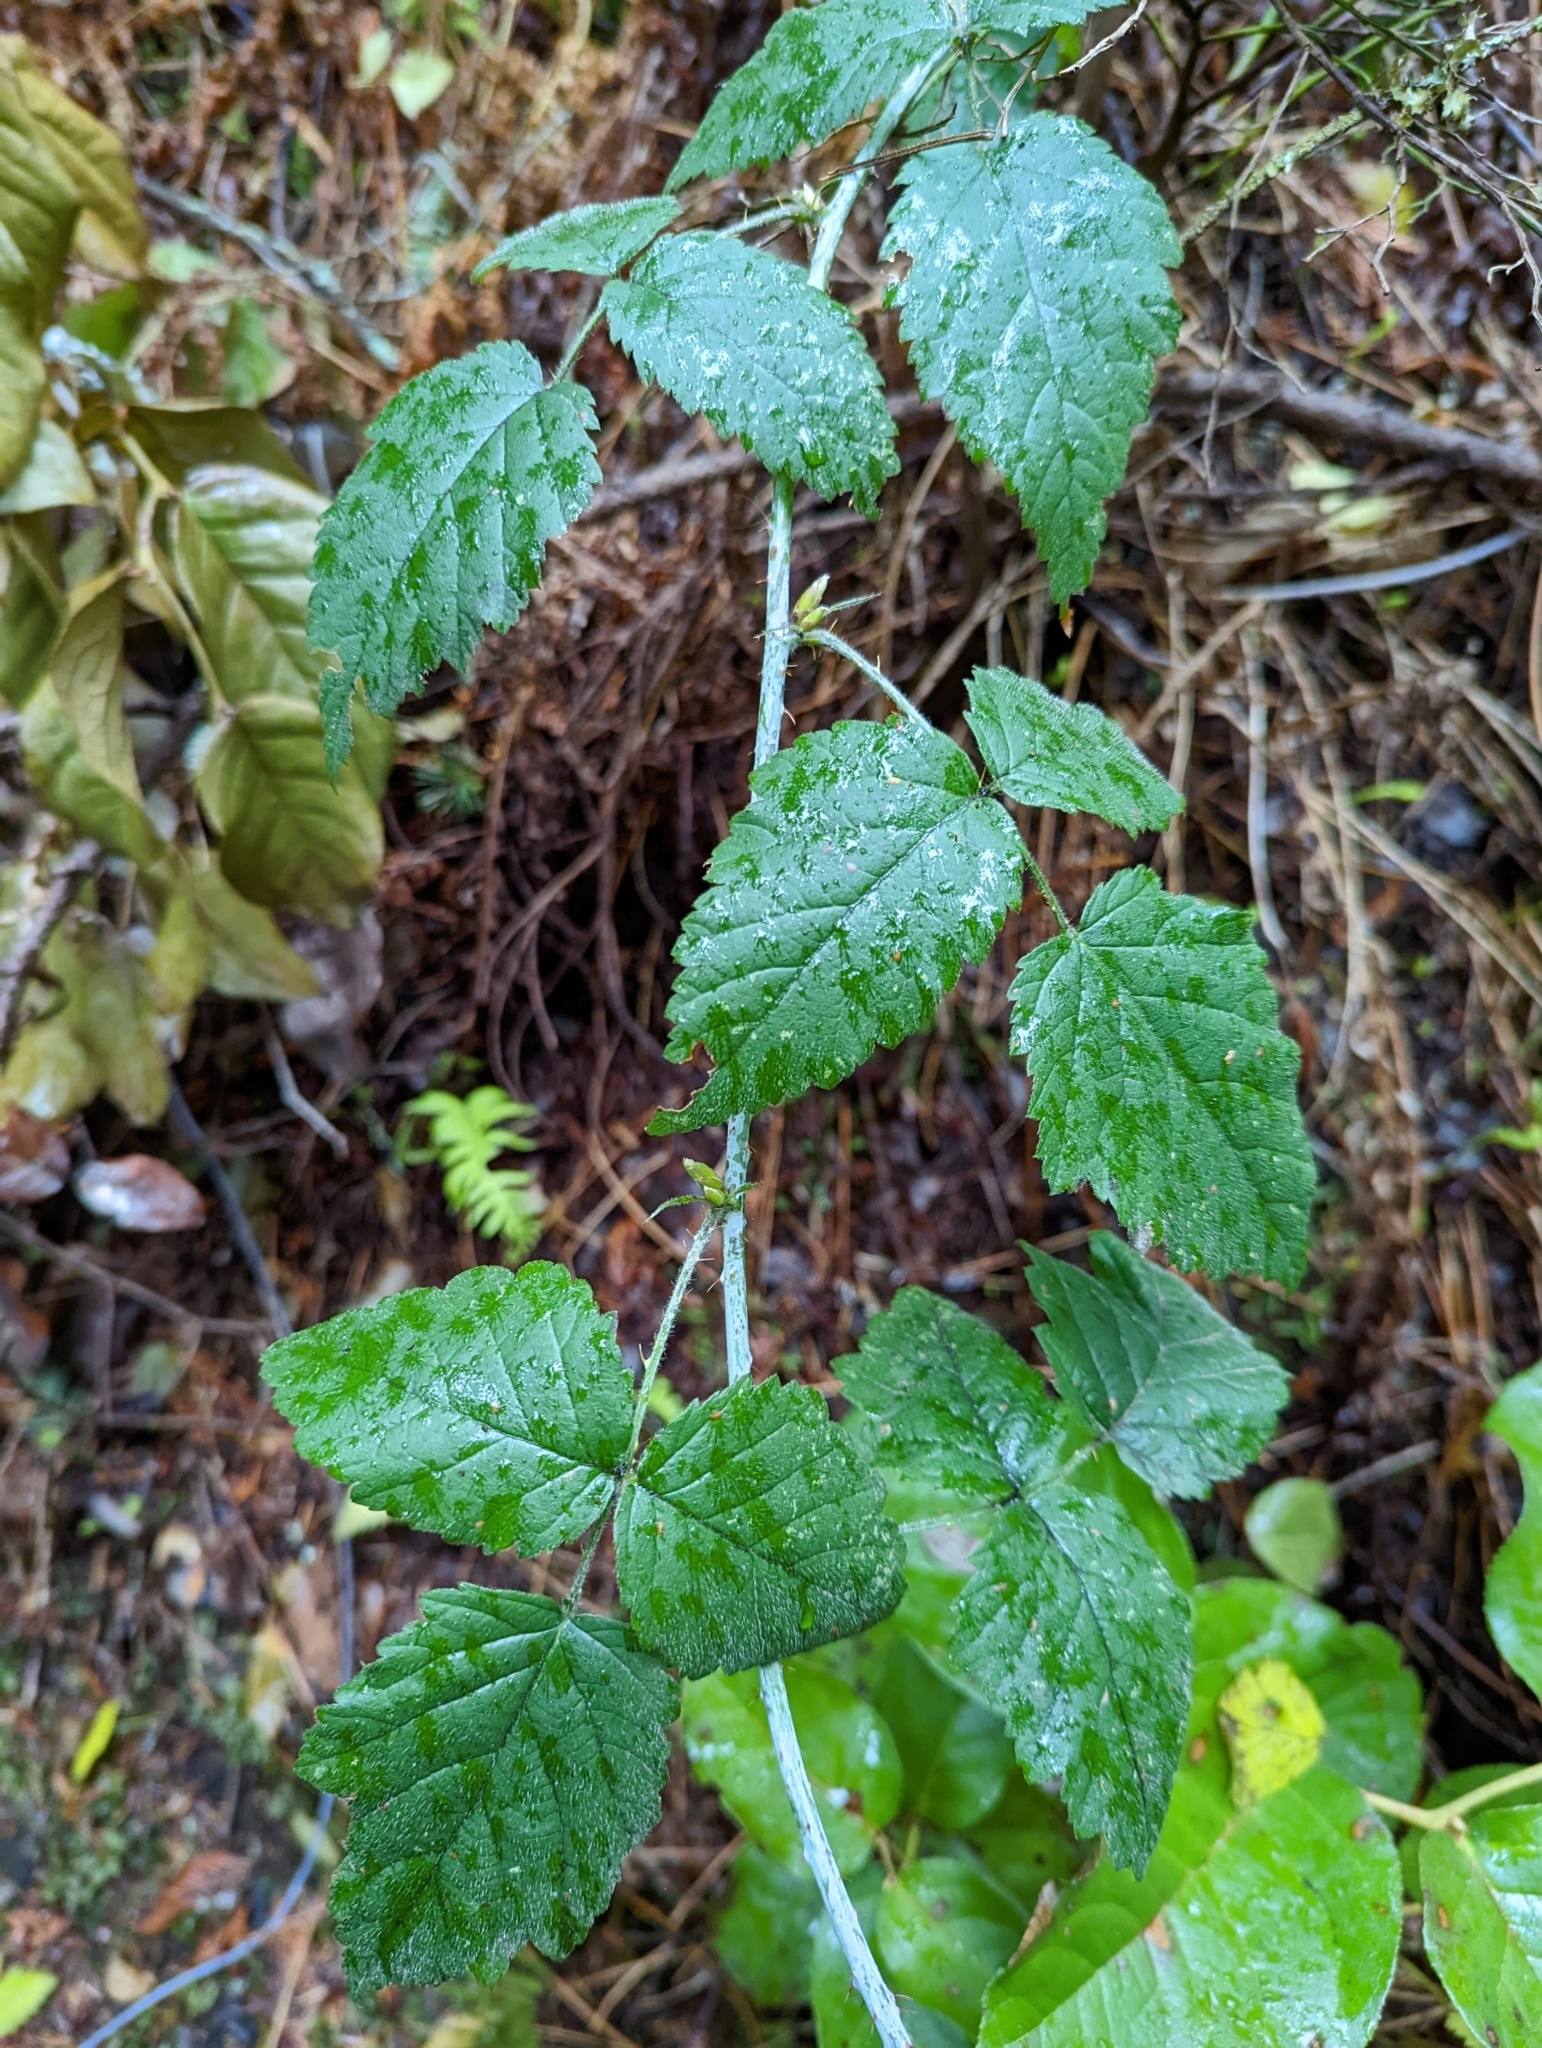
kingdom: Plantae
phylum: Tracheophyta
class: Magnoliopsida
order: Rosales
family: Rosaceae
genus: Rubus
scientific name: Rubus ursinus
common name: Pacific blackberry
